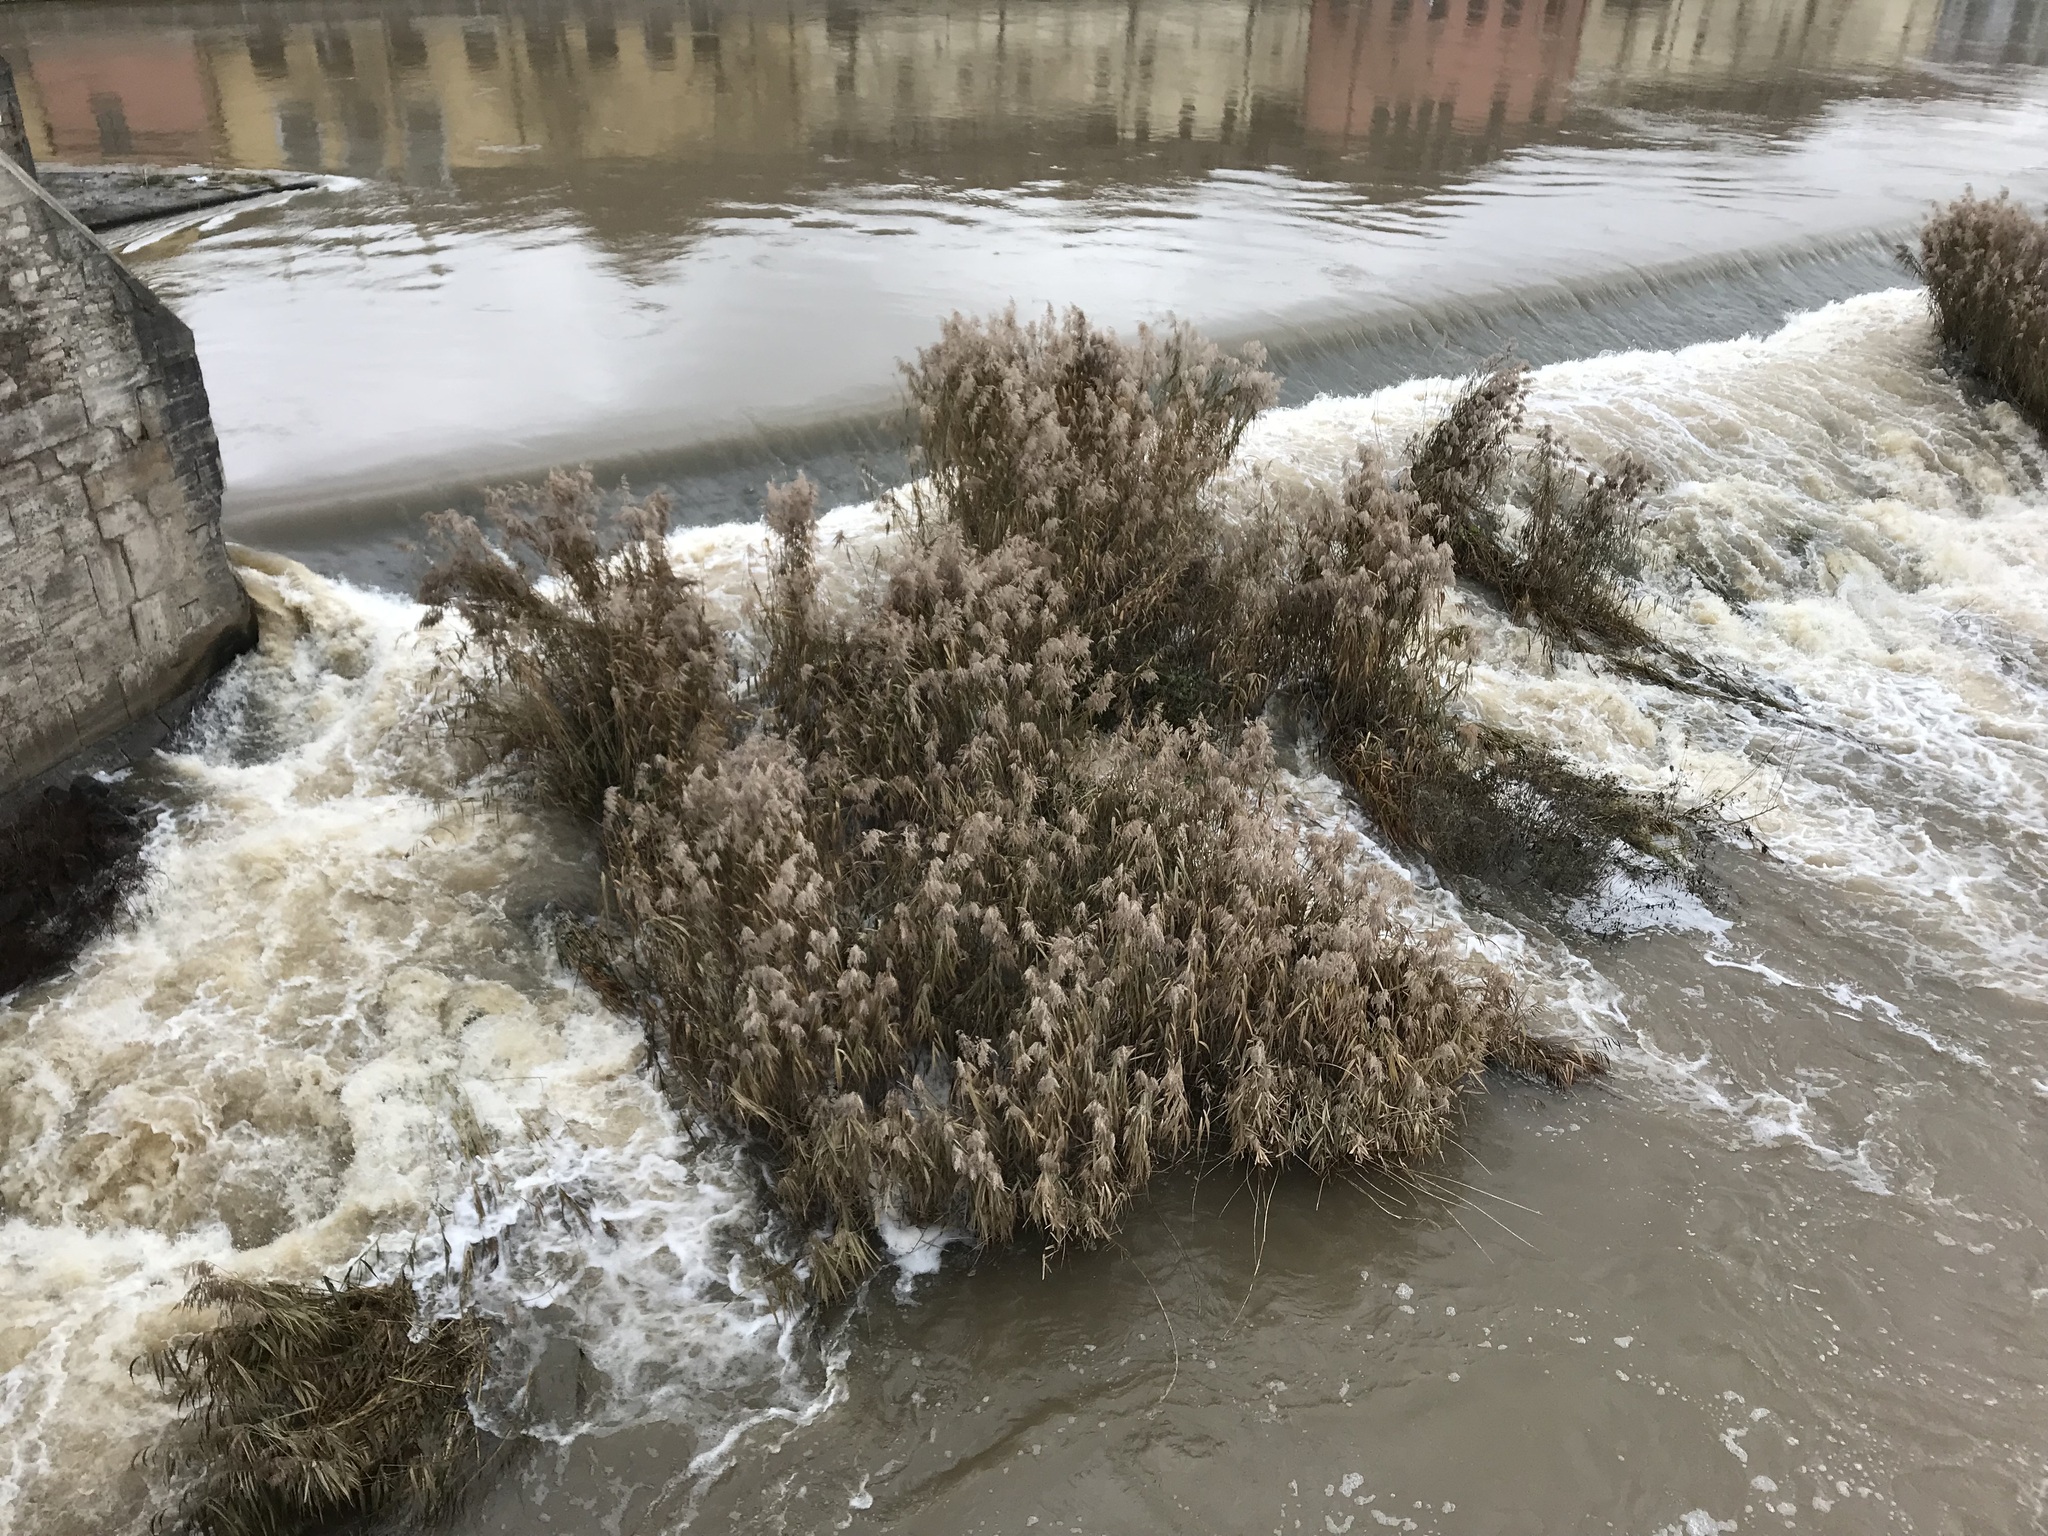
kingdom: Plantae
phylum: Tracheophyta
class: Liliopsida
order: Poales
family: Poaceae
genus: Phragmites
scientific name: Phragmites australis
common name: Common reed
